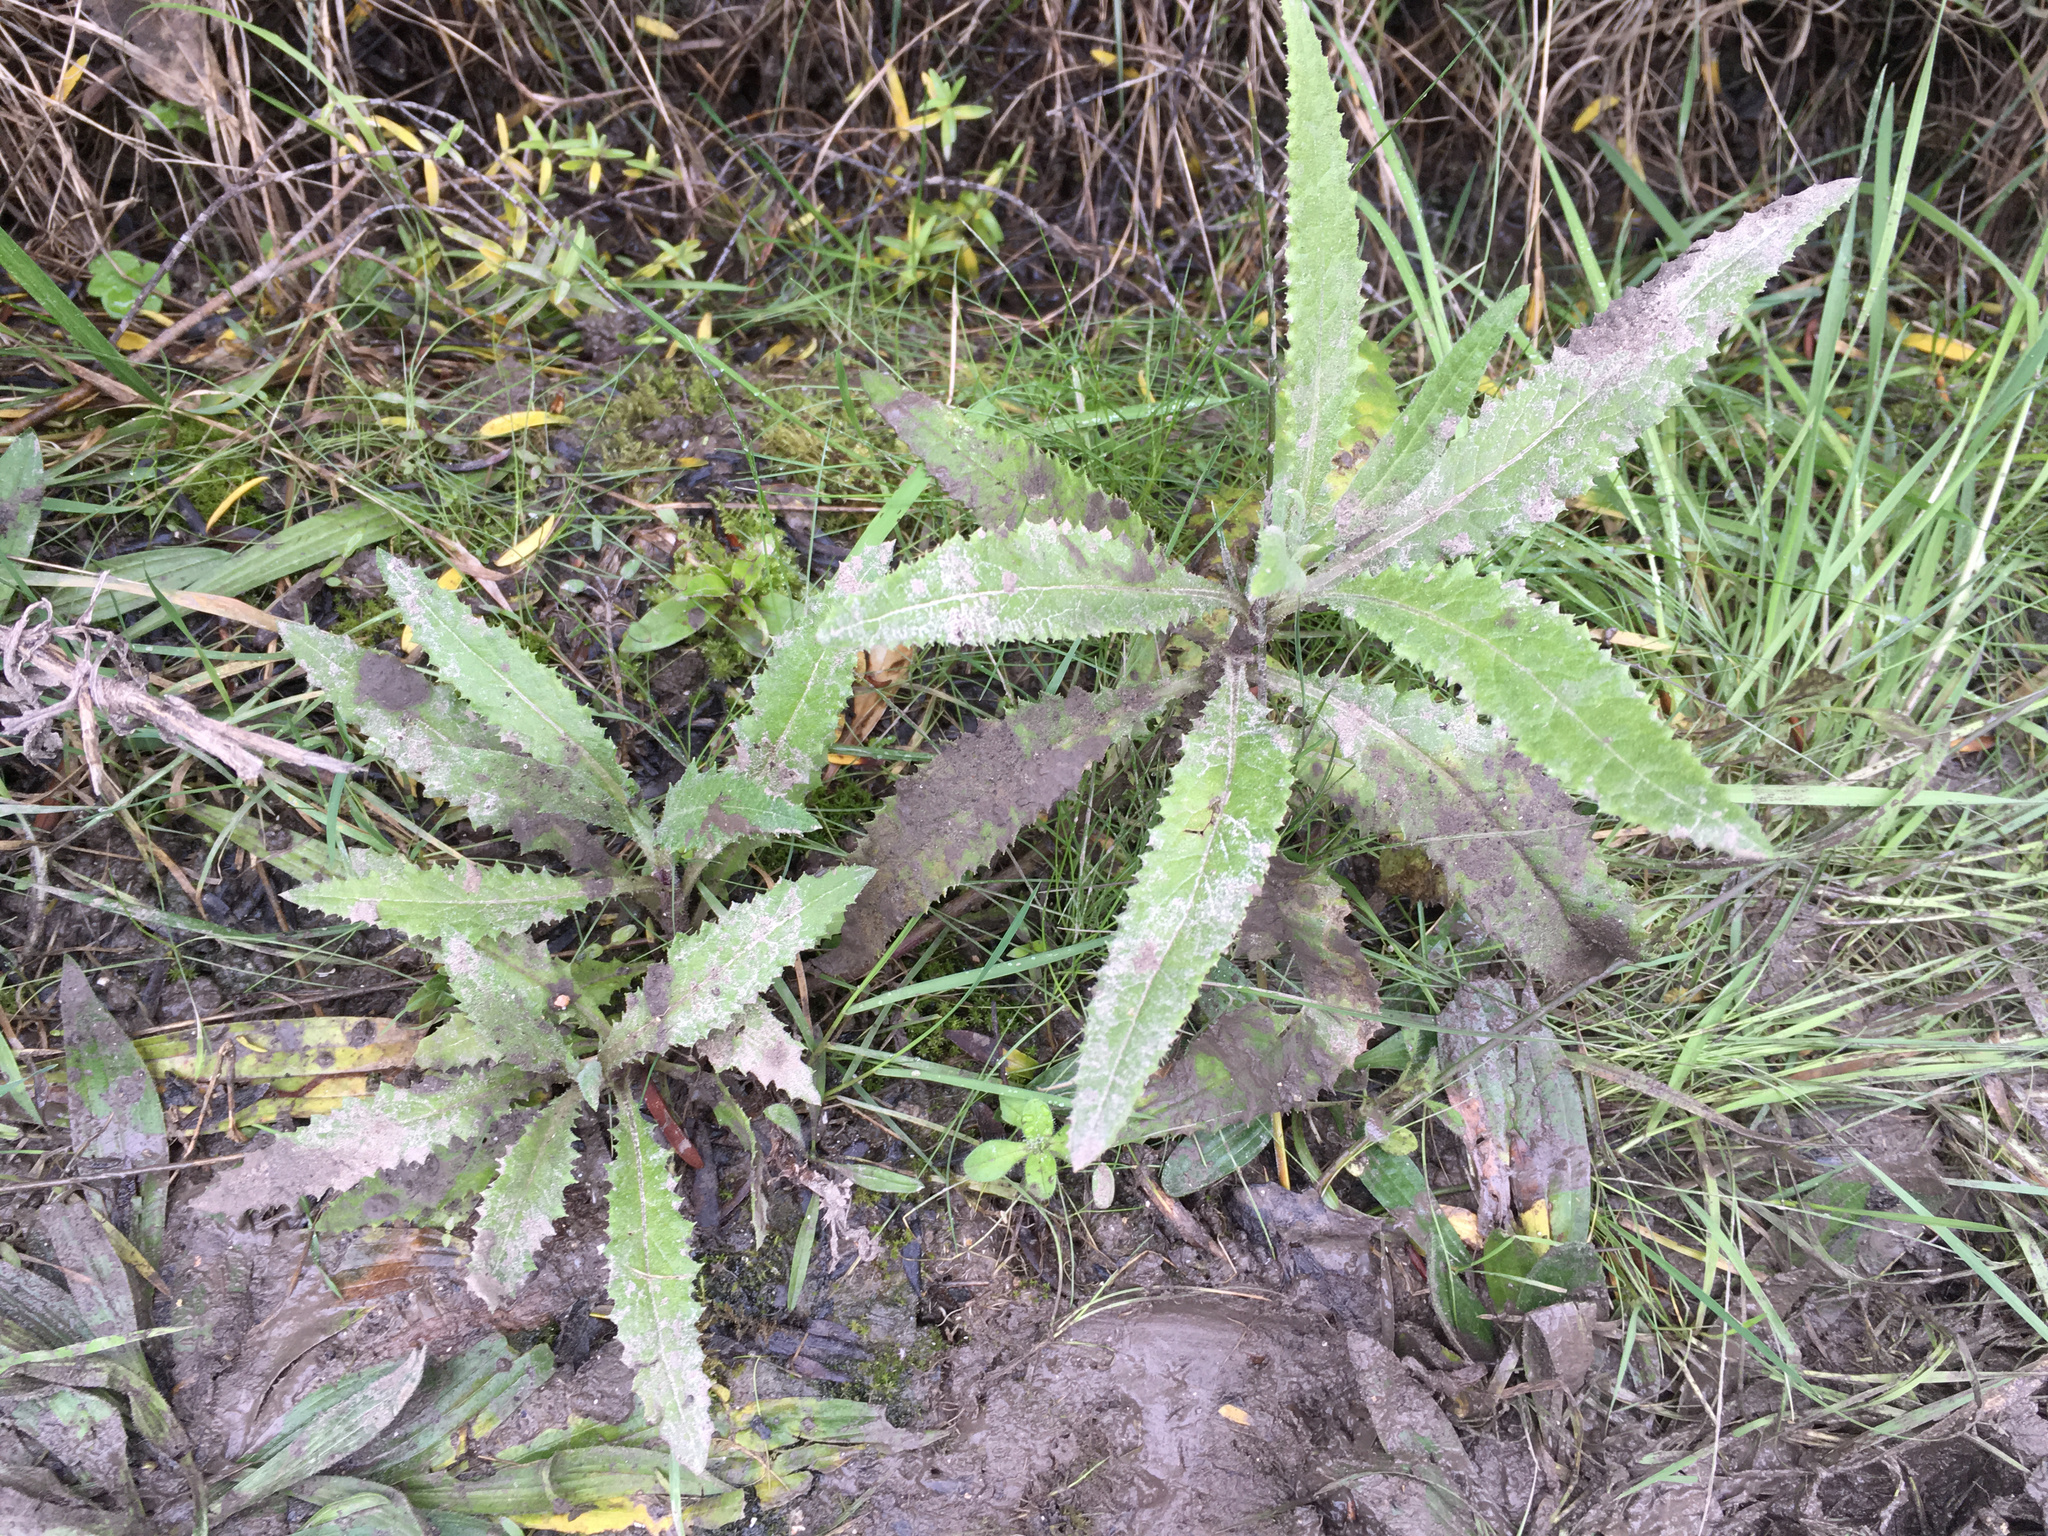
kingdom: Plantae
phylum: Tracheophyta
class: Magnoliopsida
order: Asterales
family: Asteraceae
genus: Senecio
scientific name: Senecio minimus
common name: Toothed fireweed
